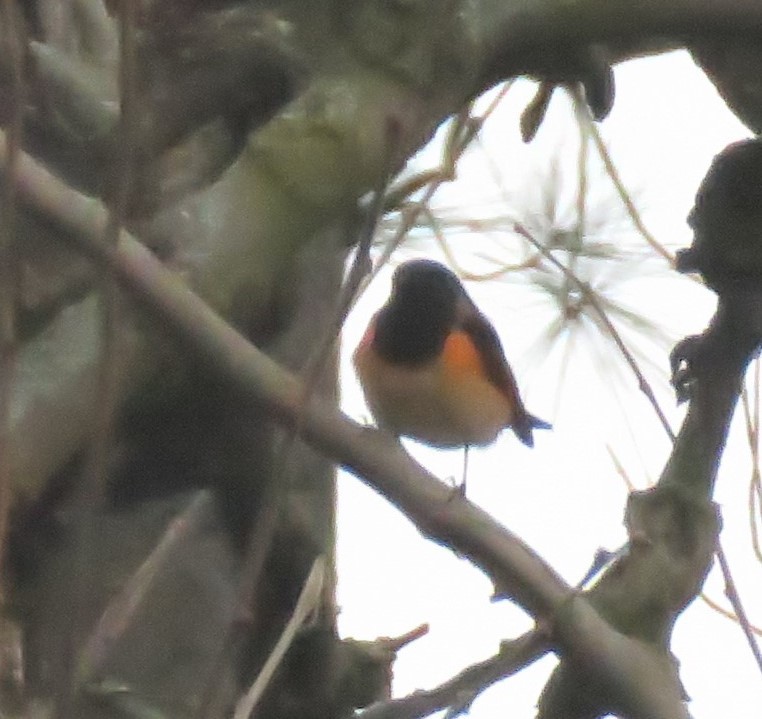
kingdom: Animalia
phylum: Chordata
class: Aves
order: Passeriformes
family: Parulidae
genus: Setophaga
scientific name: Setophaga ruticilla
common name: American redstart
